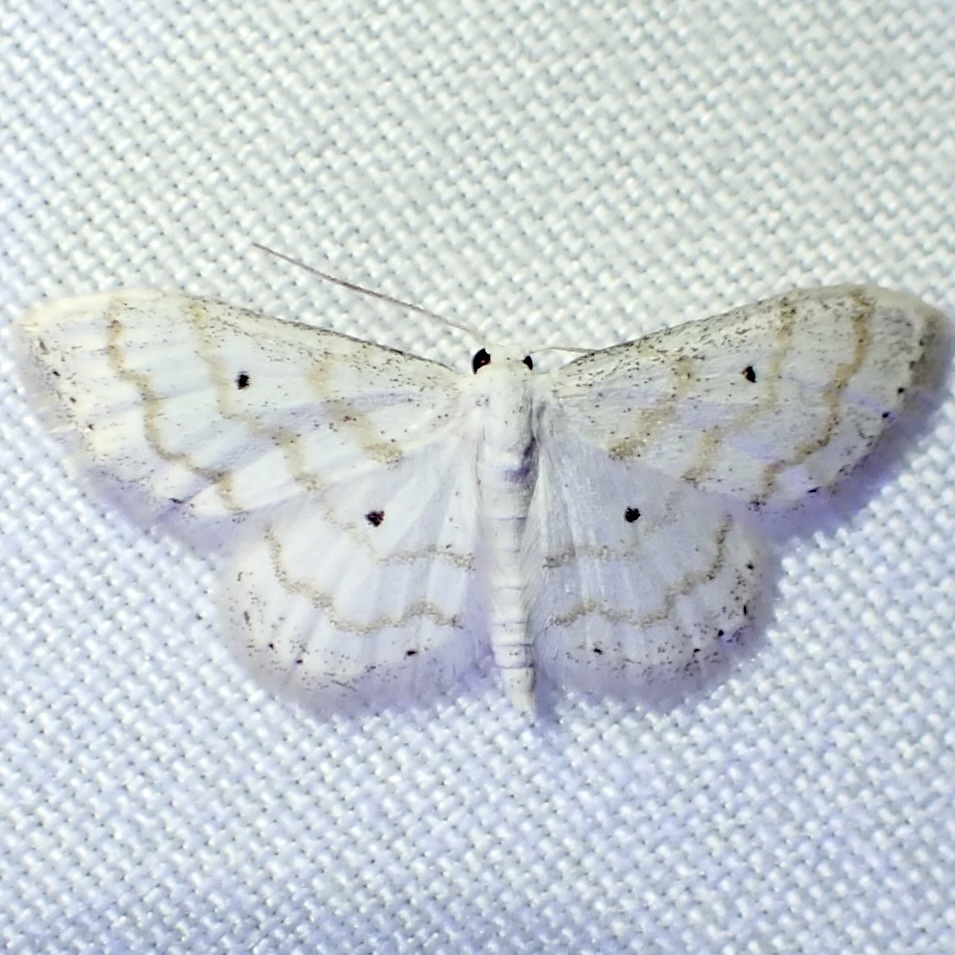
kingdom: Animalia
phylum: Arthropoda
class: Insecta
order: Lepidoptera
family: Geometridae
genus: Lobocleta
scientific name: Lobocleta peralbata
